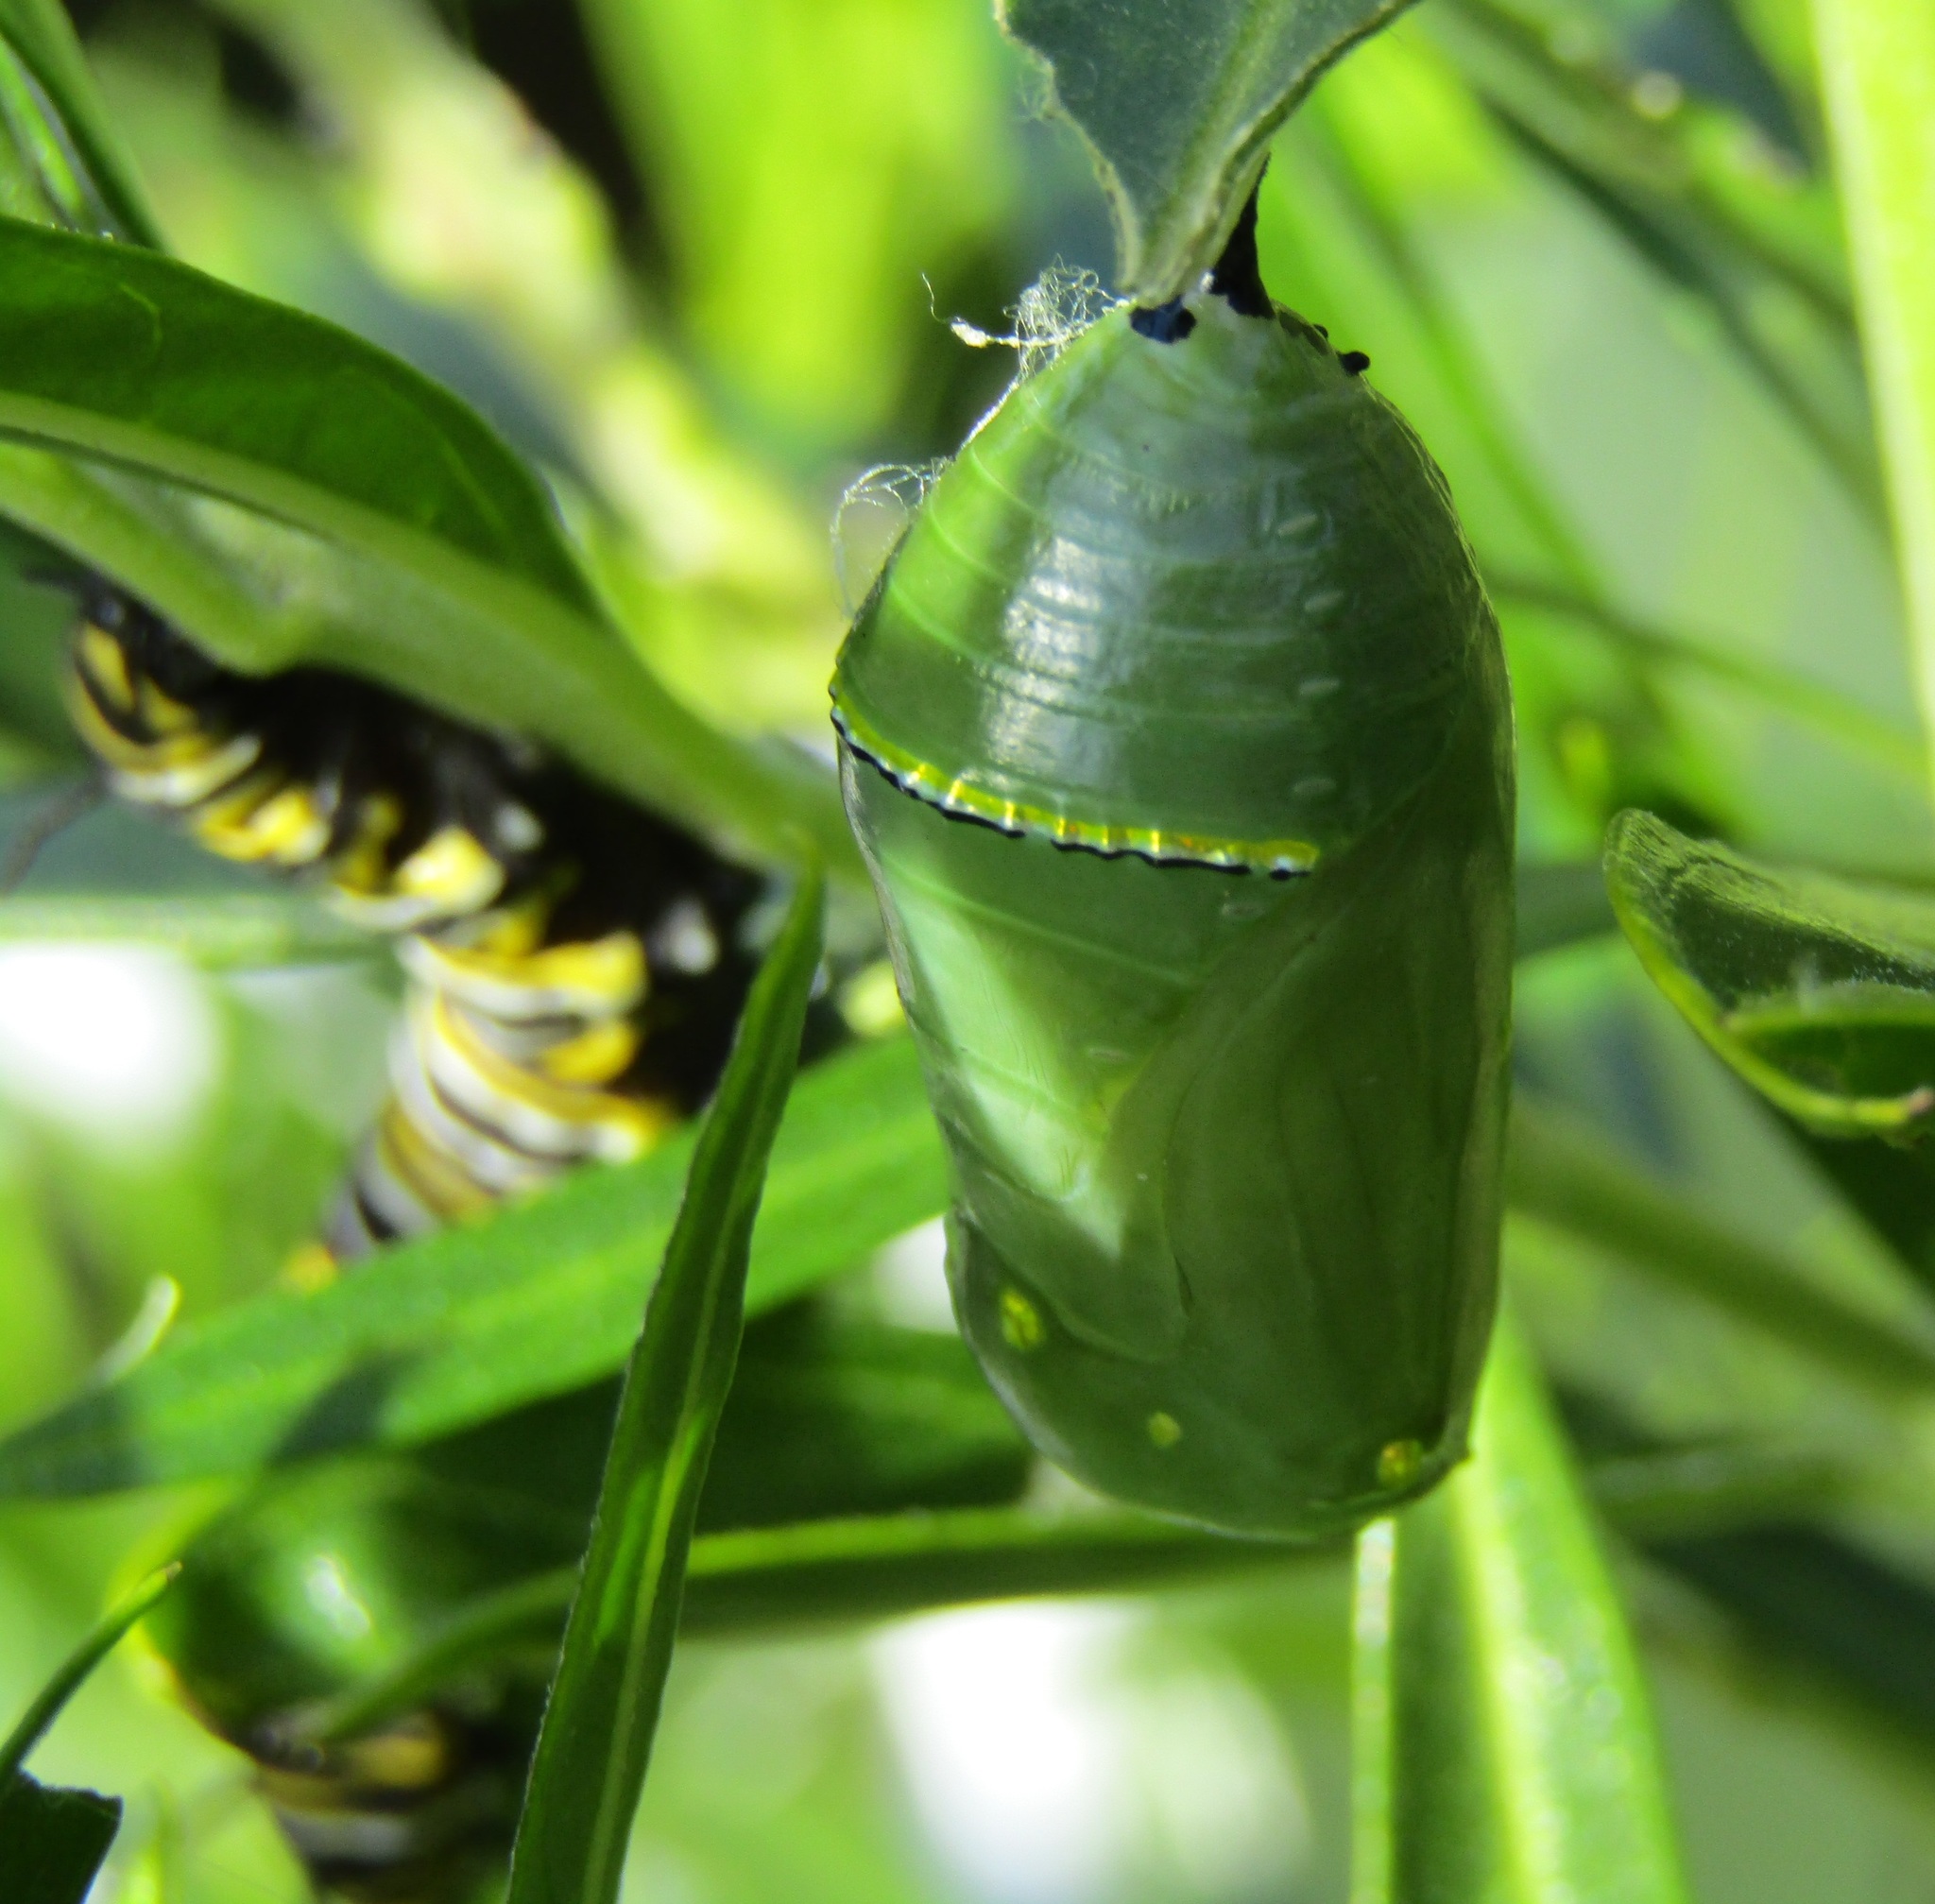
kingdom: Animalia
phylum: Arthropoda
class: Insecta
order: Lepidoptera
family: Nymphalidae
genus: Danaus
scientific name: Danaus plexippus
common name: Monarch
